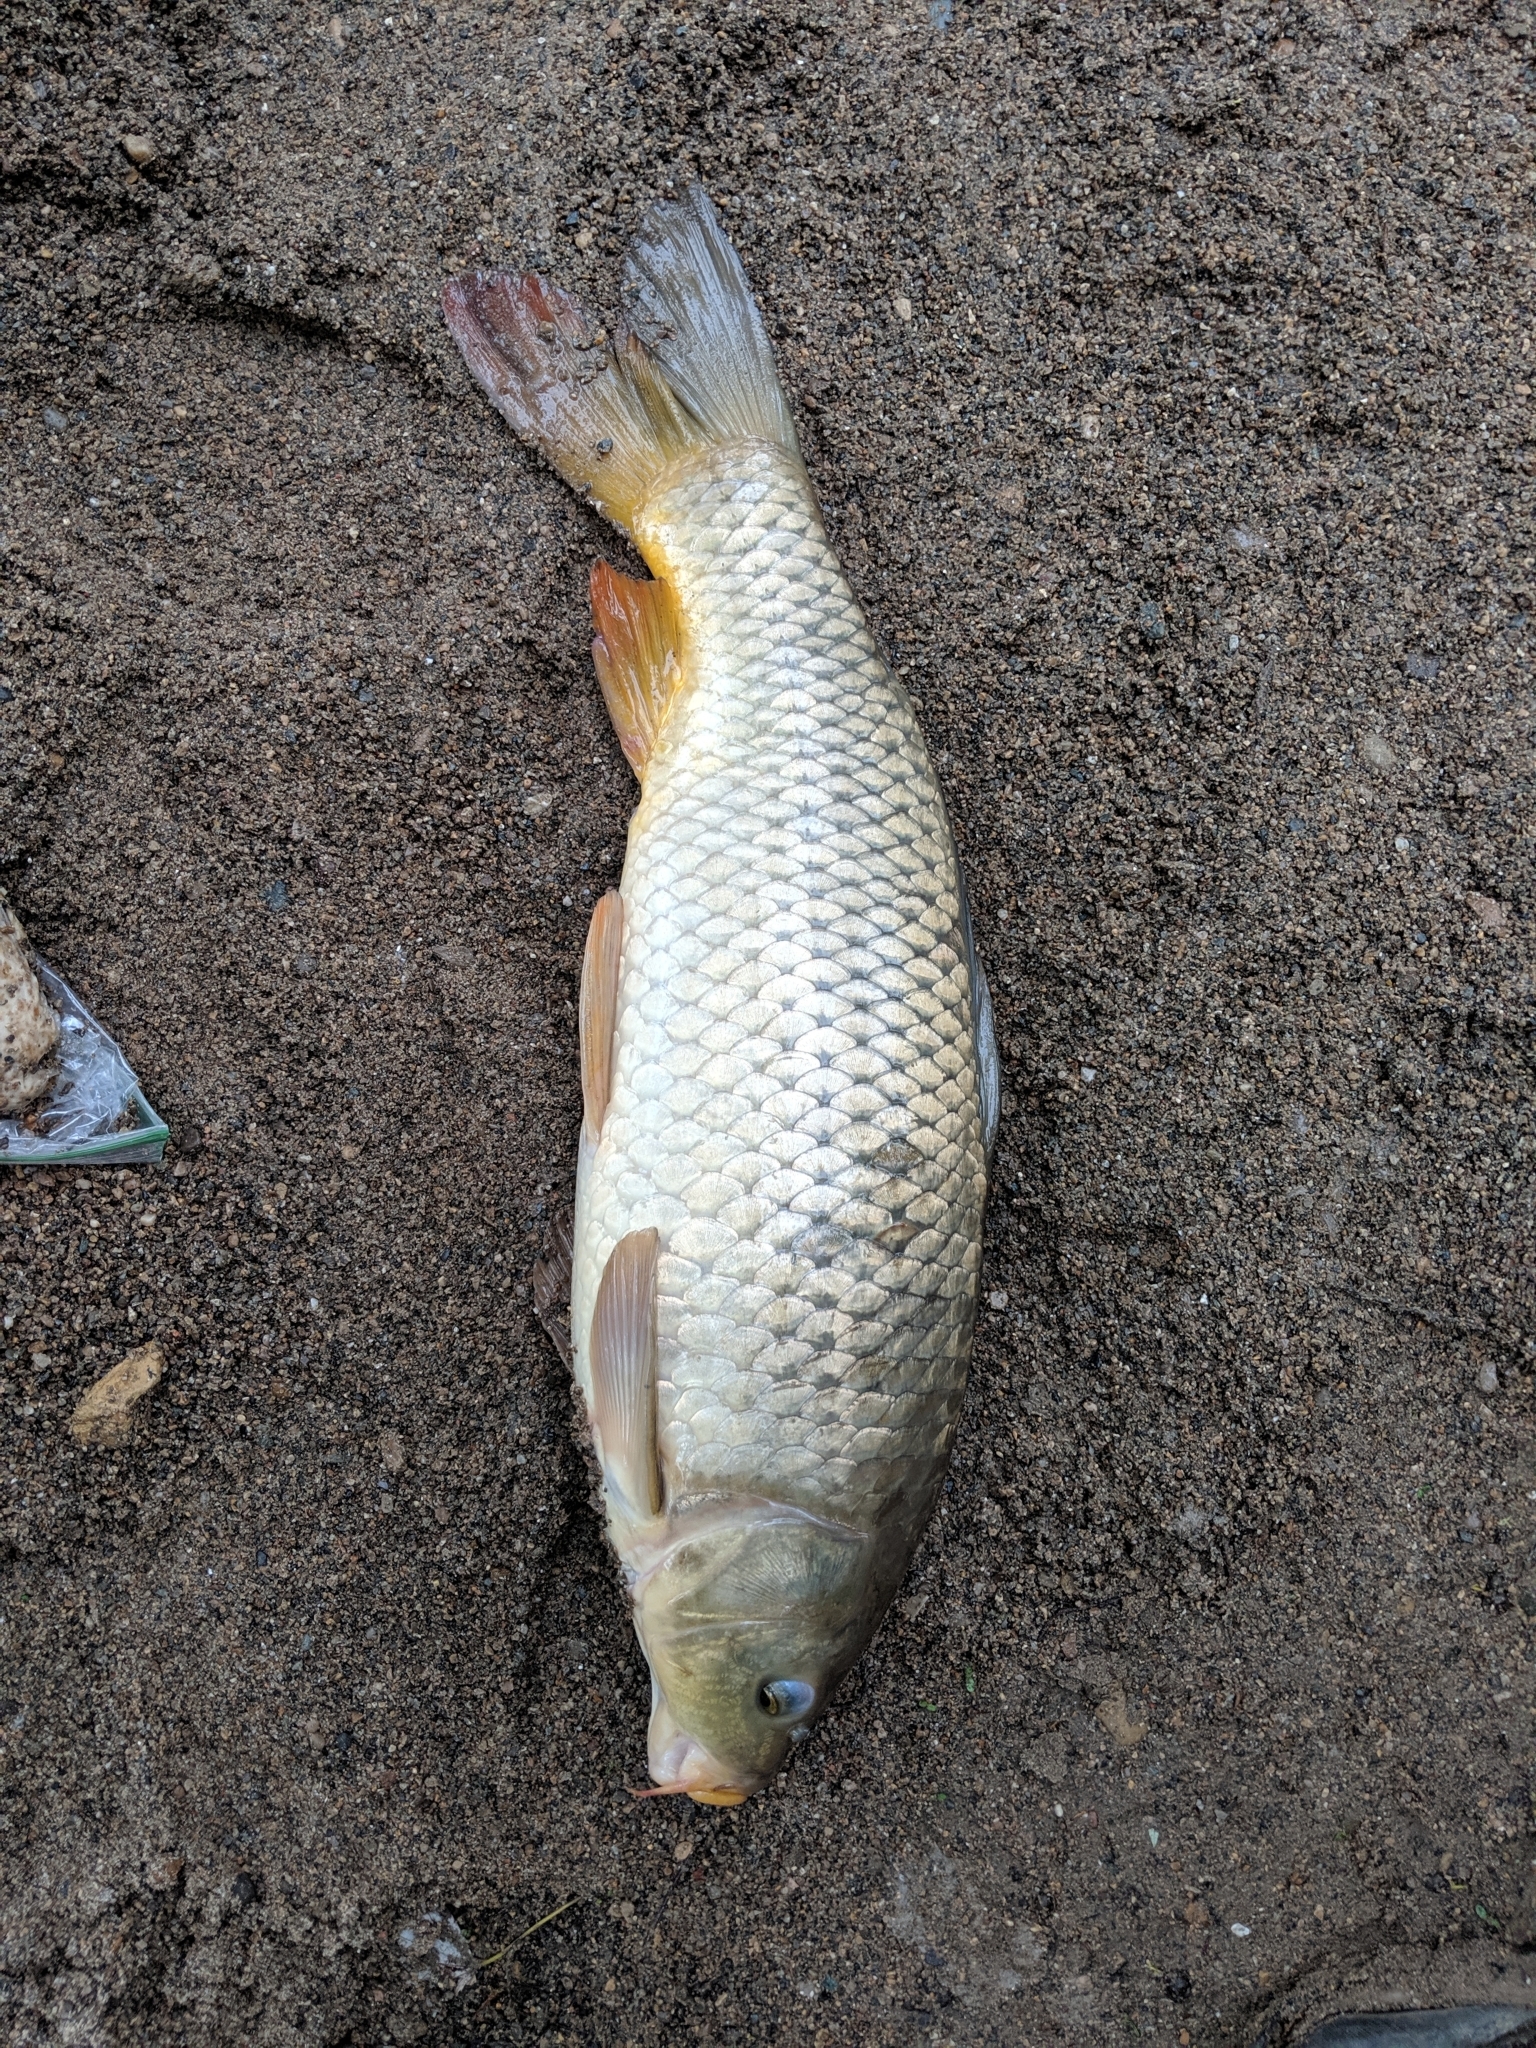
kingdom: Animalia
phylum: Chordata
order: Cypriniformes
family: Cyprinidae
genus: Cyprinus
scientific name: Cyprinus carpio
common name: Common carp
